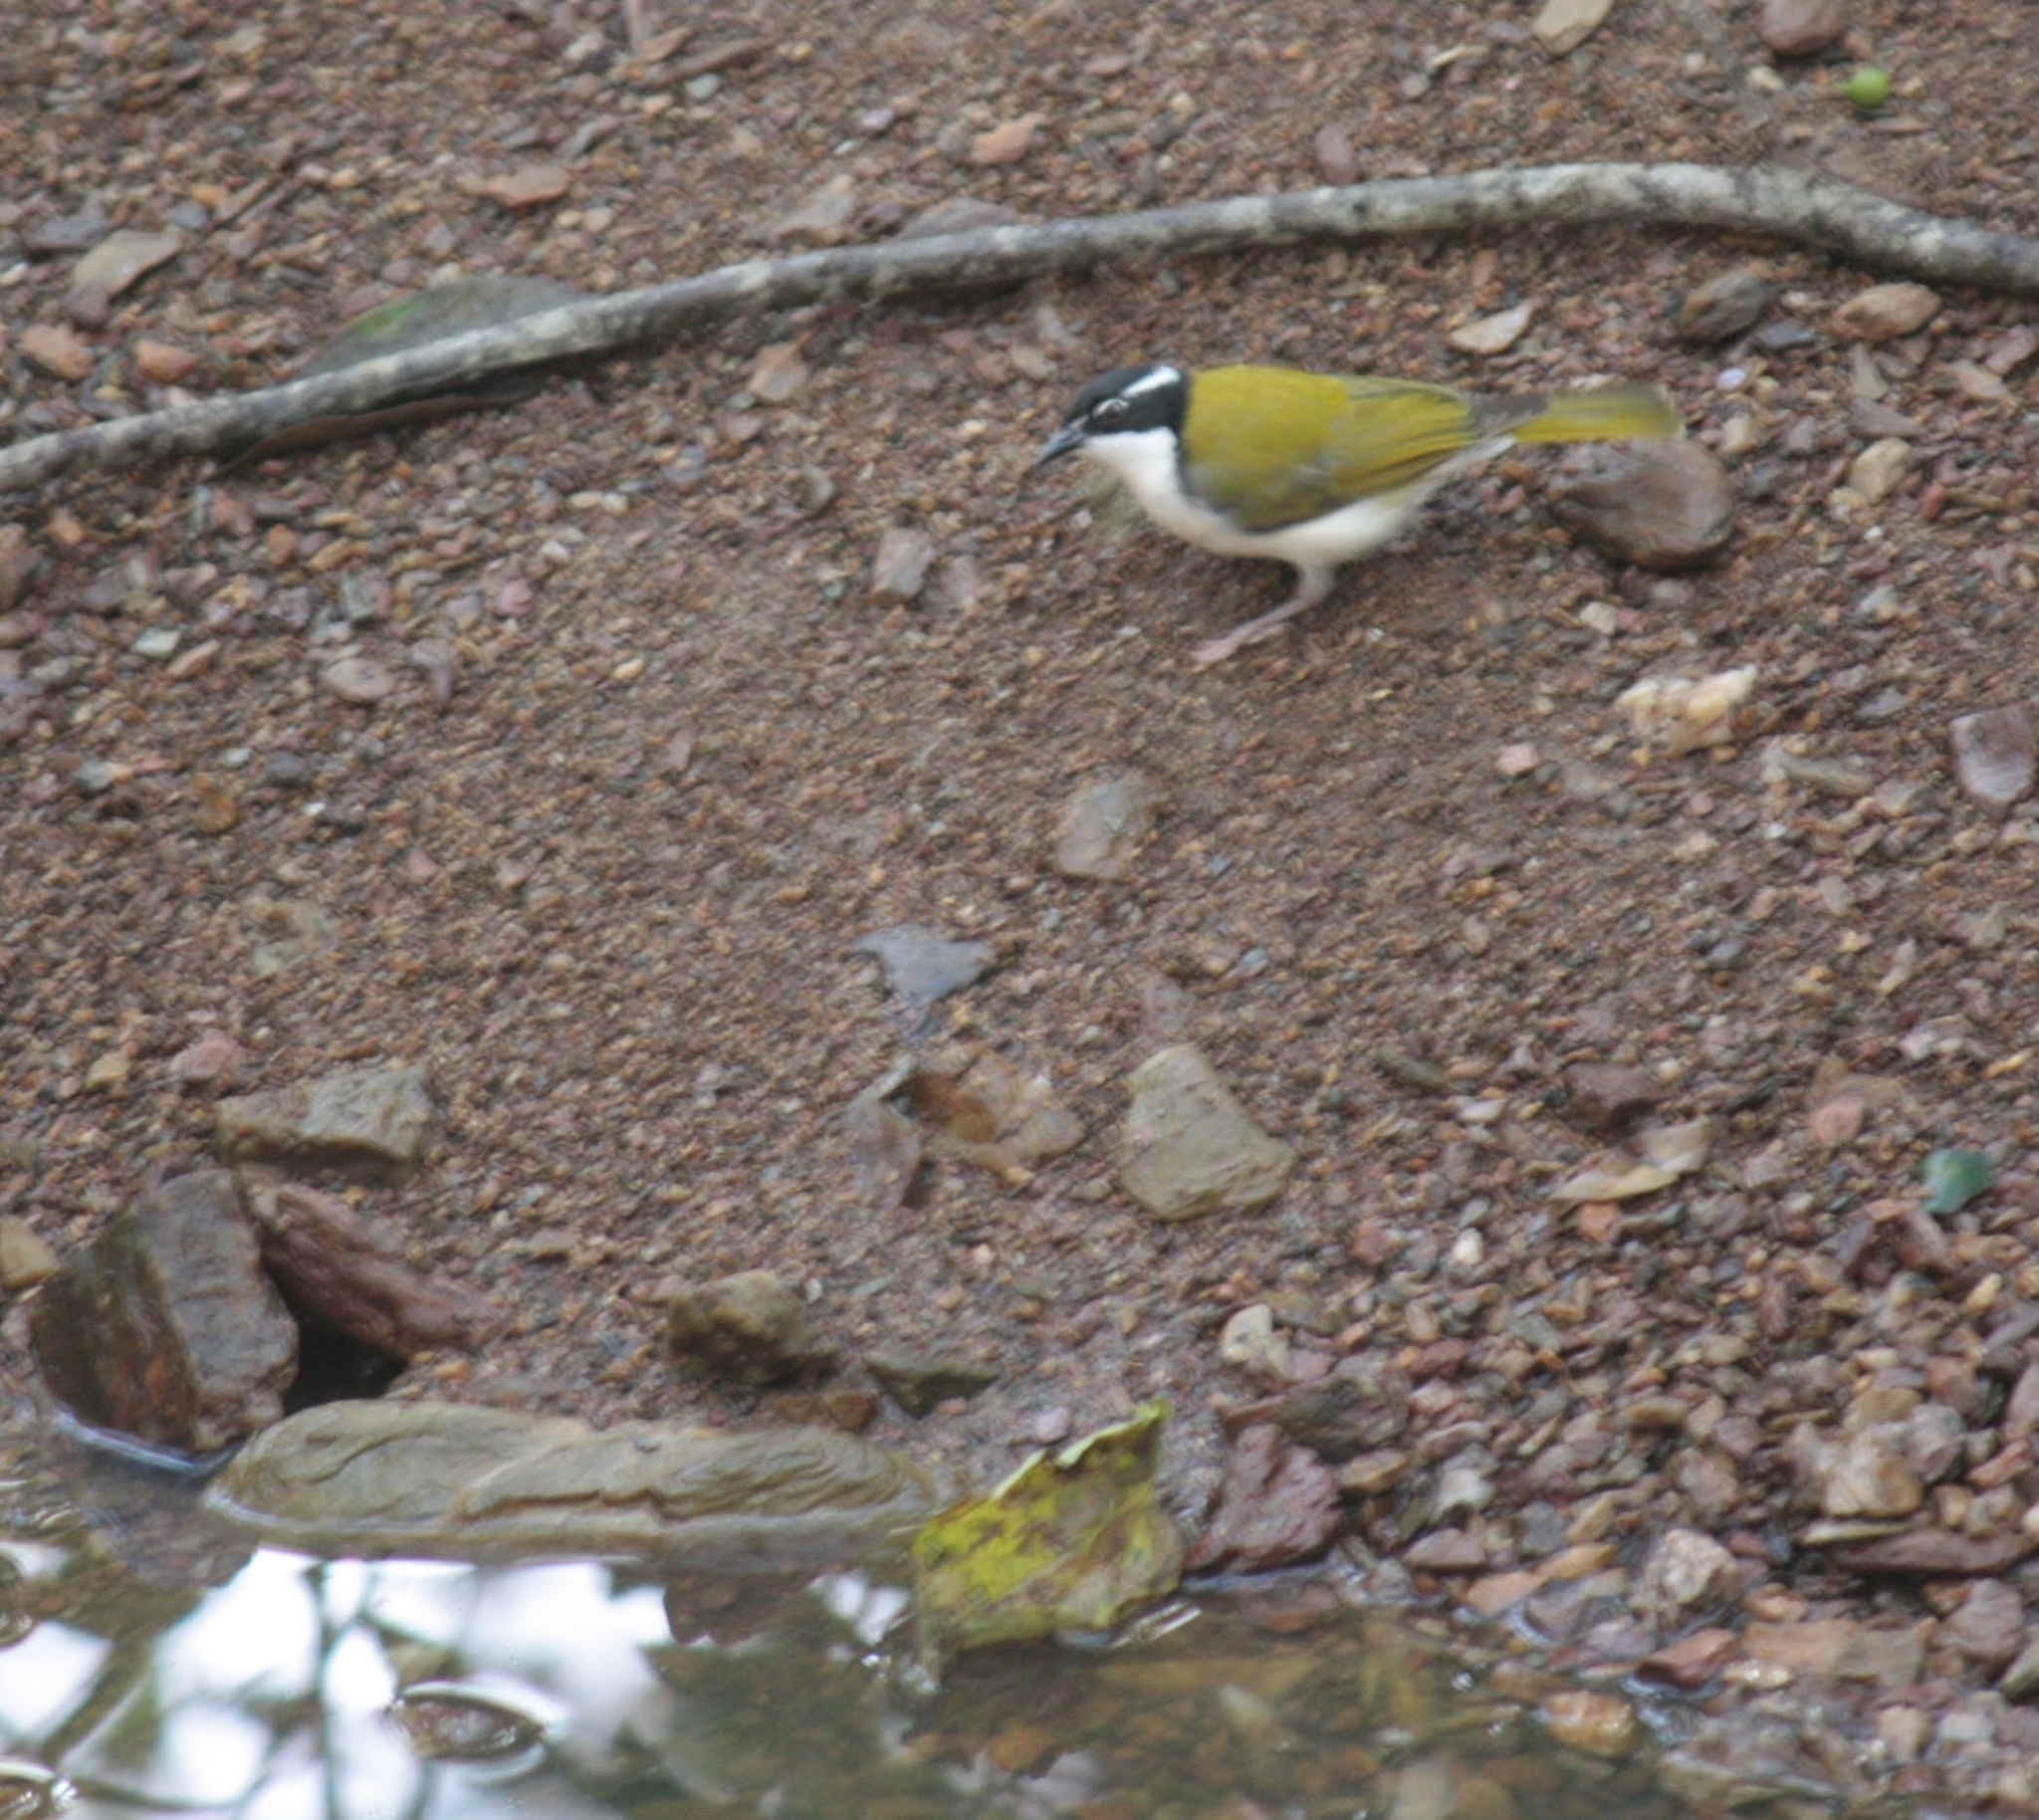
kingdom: Animalia
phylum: Chordata
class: Aves
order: Passeriformes
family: Meliphagidae
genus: Melithreptus
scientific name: Melithreptus albogularis
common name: White-throated honeyeater
